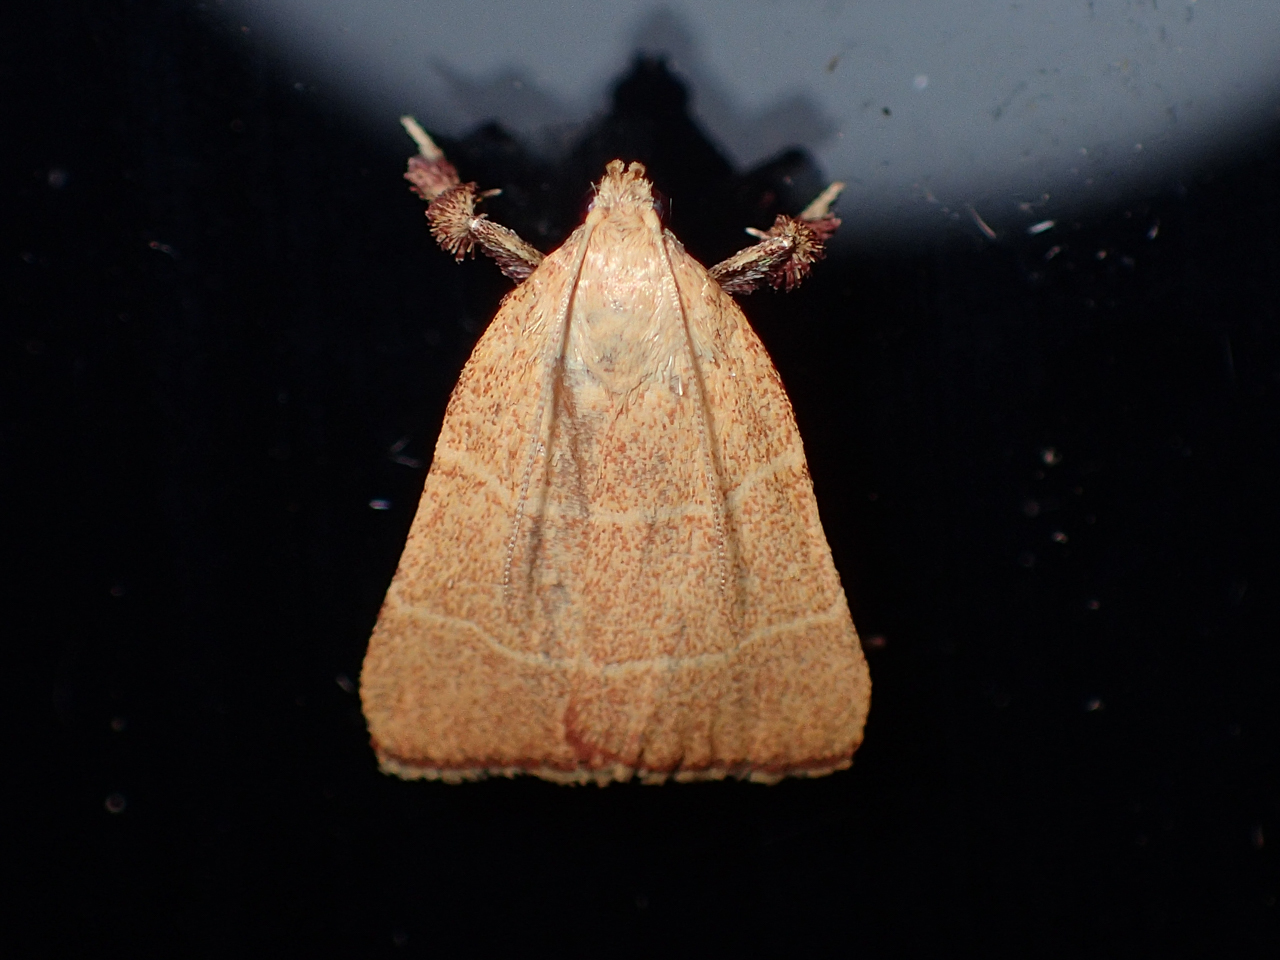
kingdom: Animalia
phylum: Arthropoda
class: Insecta
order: Lepidoptera
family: Pyralidae
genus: Parachma
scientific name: Parachma ochracealis
